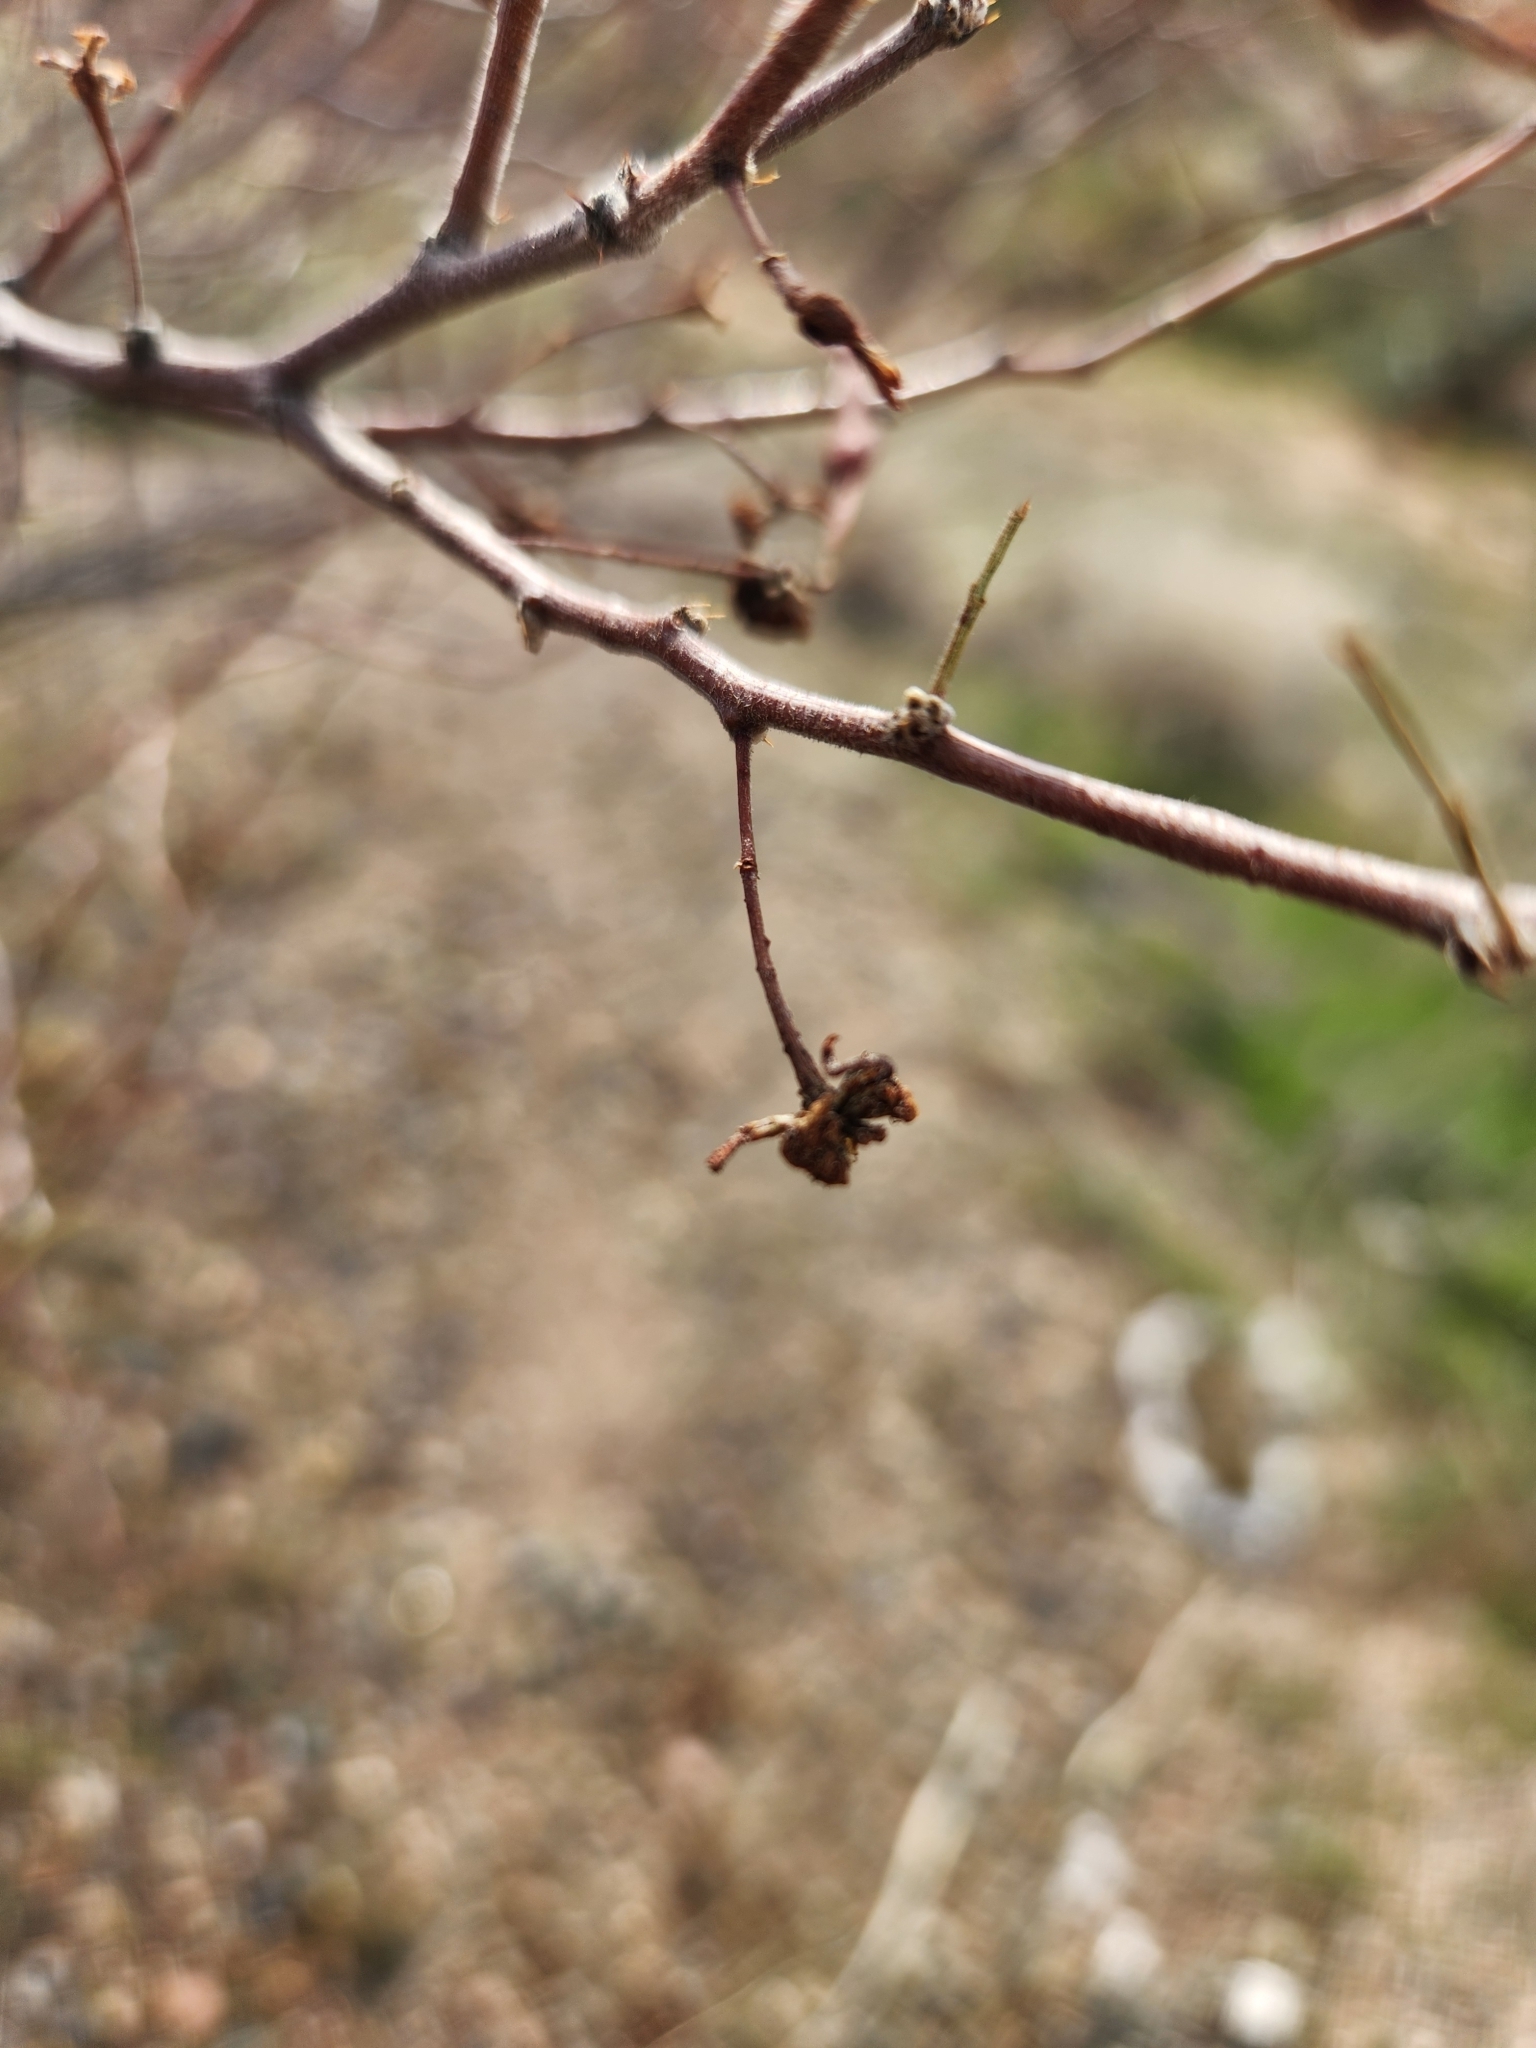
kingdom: Plantae
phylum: Tracheophyta
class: Magnoliopsida
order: Fabales
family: Fabaceae
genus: Vachellia
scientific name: Vachellia constricta
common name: Mescat acacia
